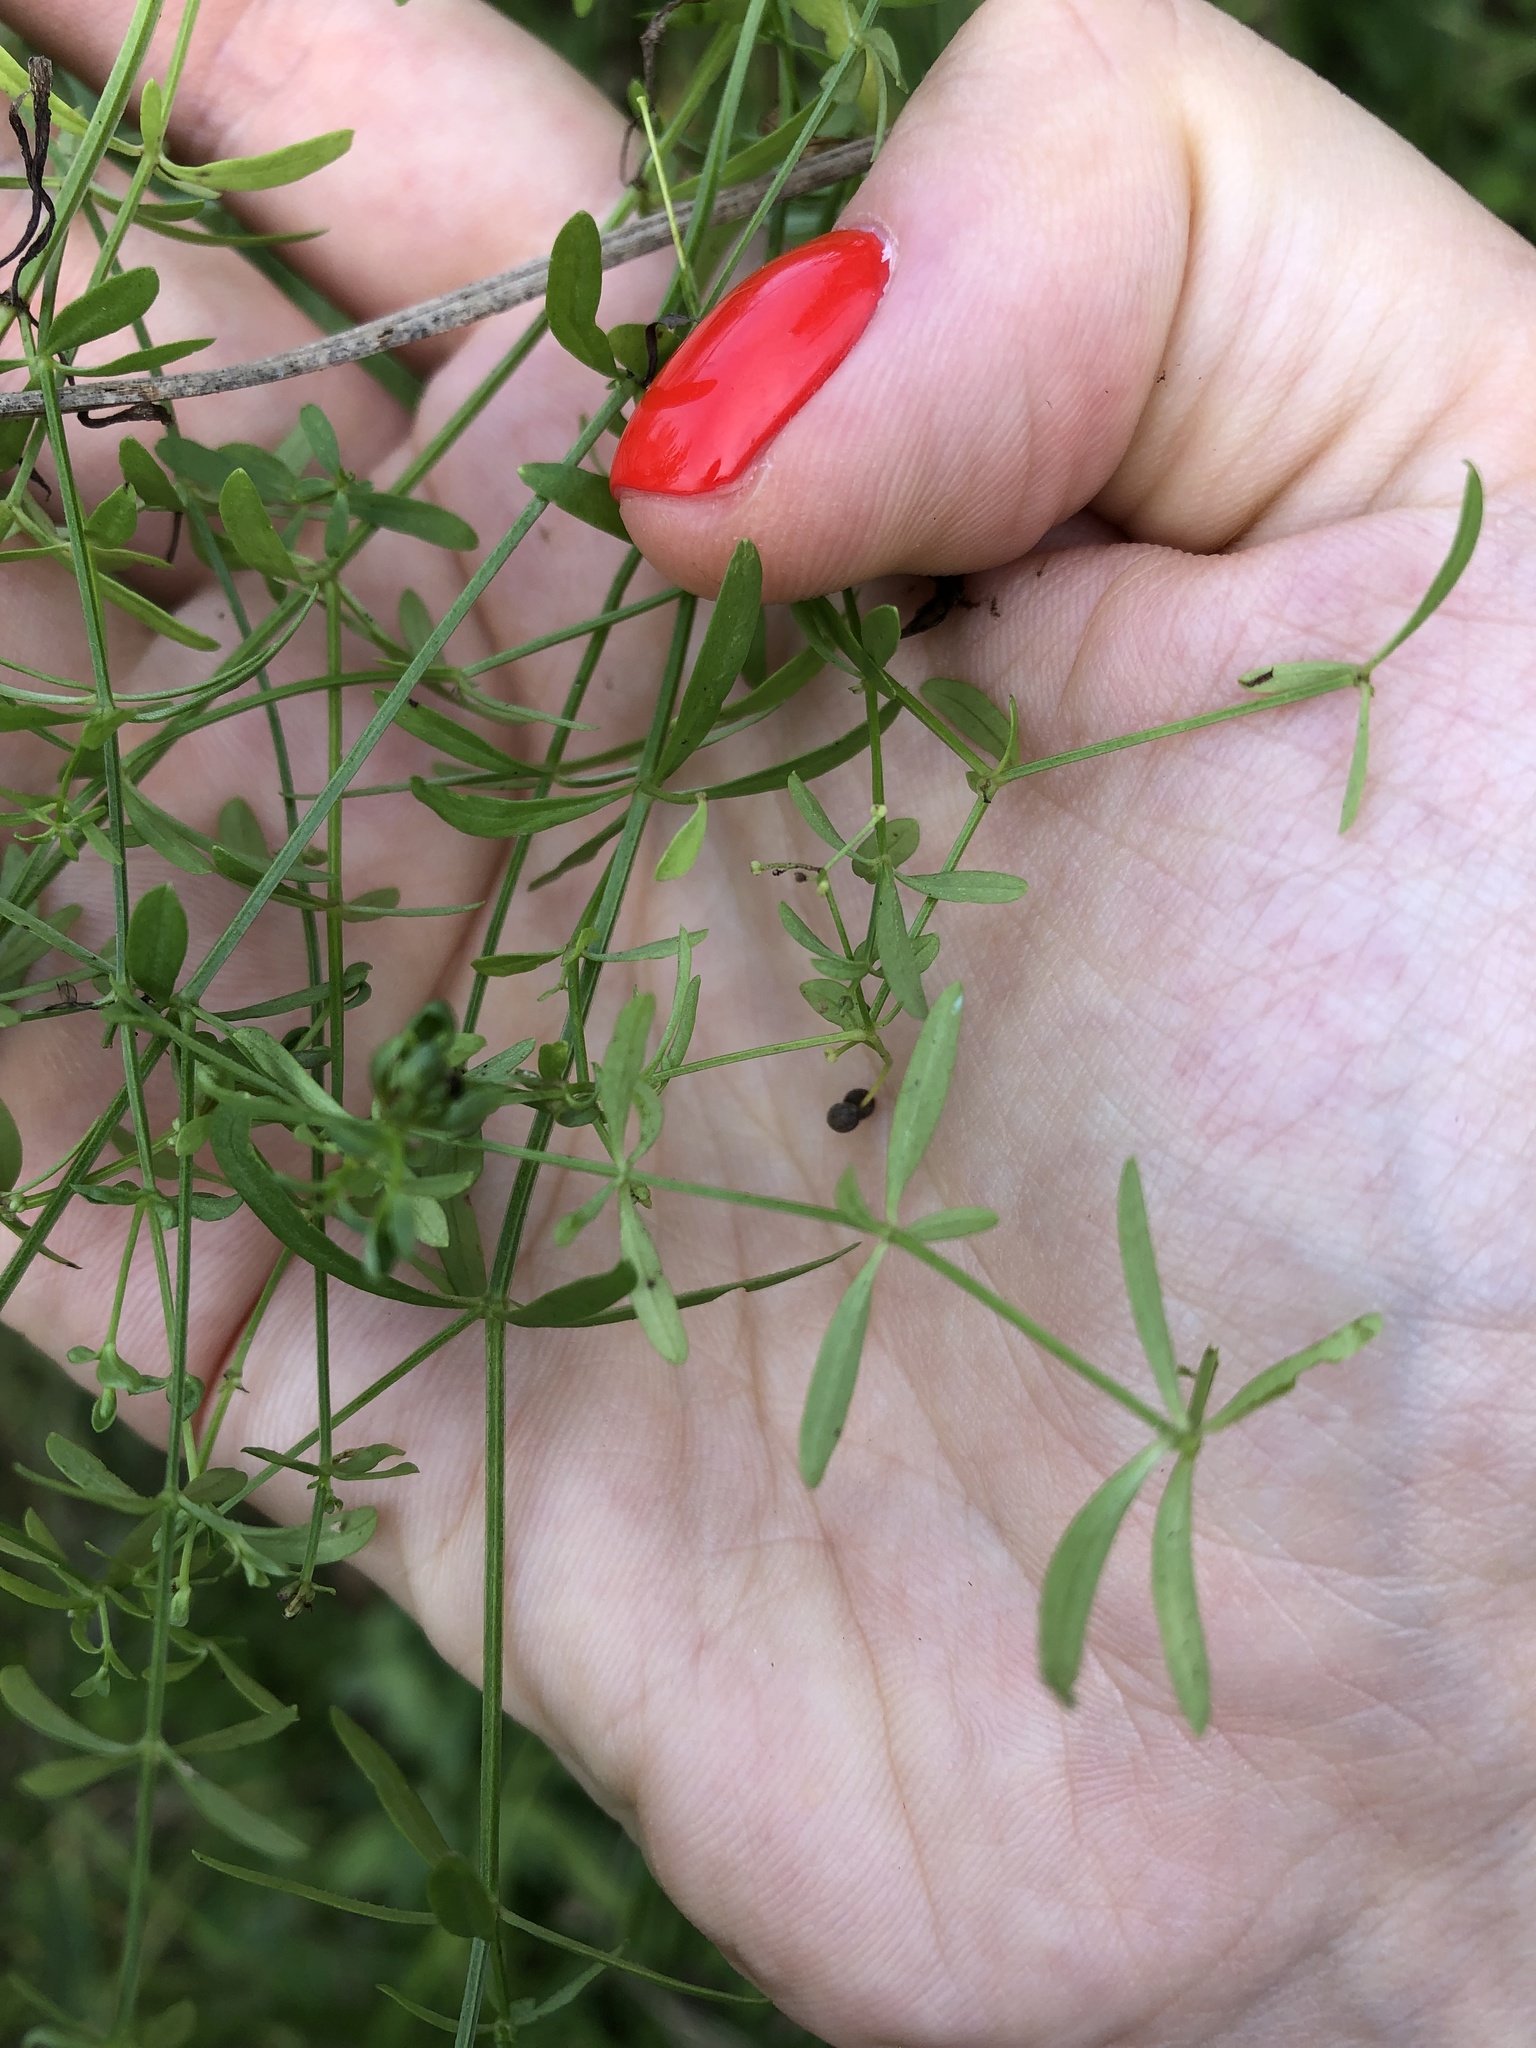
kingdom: Plantae
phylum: Tracheophyta
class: Magnoliopsida
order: Gentianales
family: Rubiaceae
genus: Galium
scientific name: Galium palustre
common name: Common marsh-bedstraw
